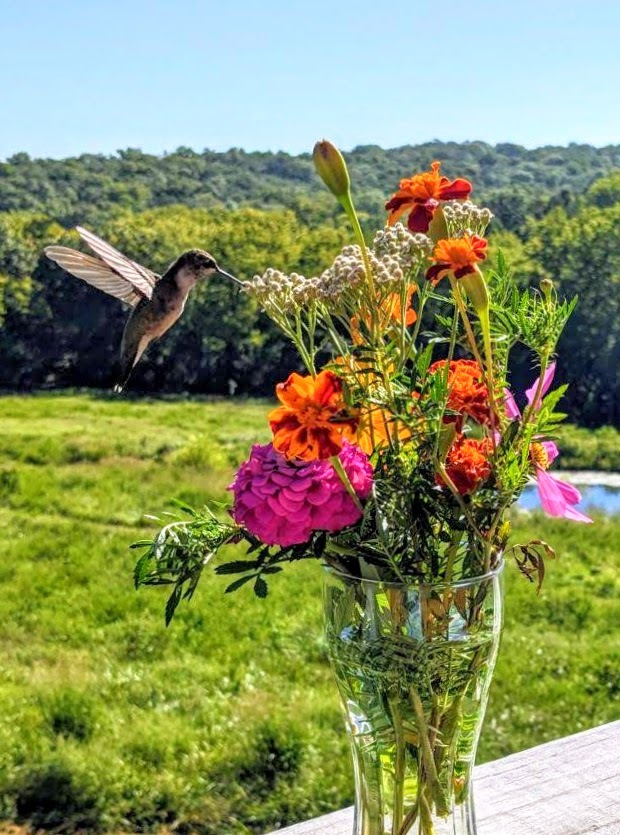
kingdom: Animalia
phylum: Chordata
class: Aves
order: Apodiformes
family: Trochilidae
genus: Archilochus
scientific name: Archilochus colubris
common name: Ruby-throated hummingbird
